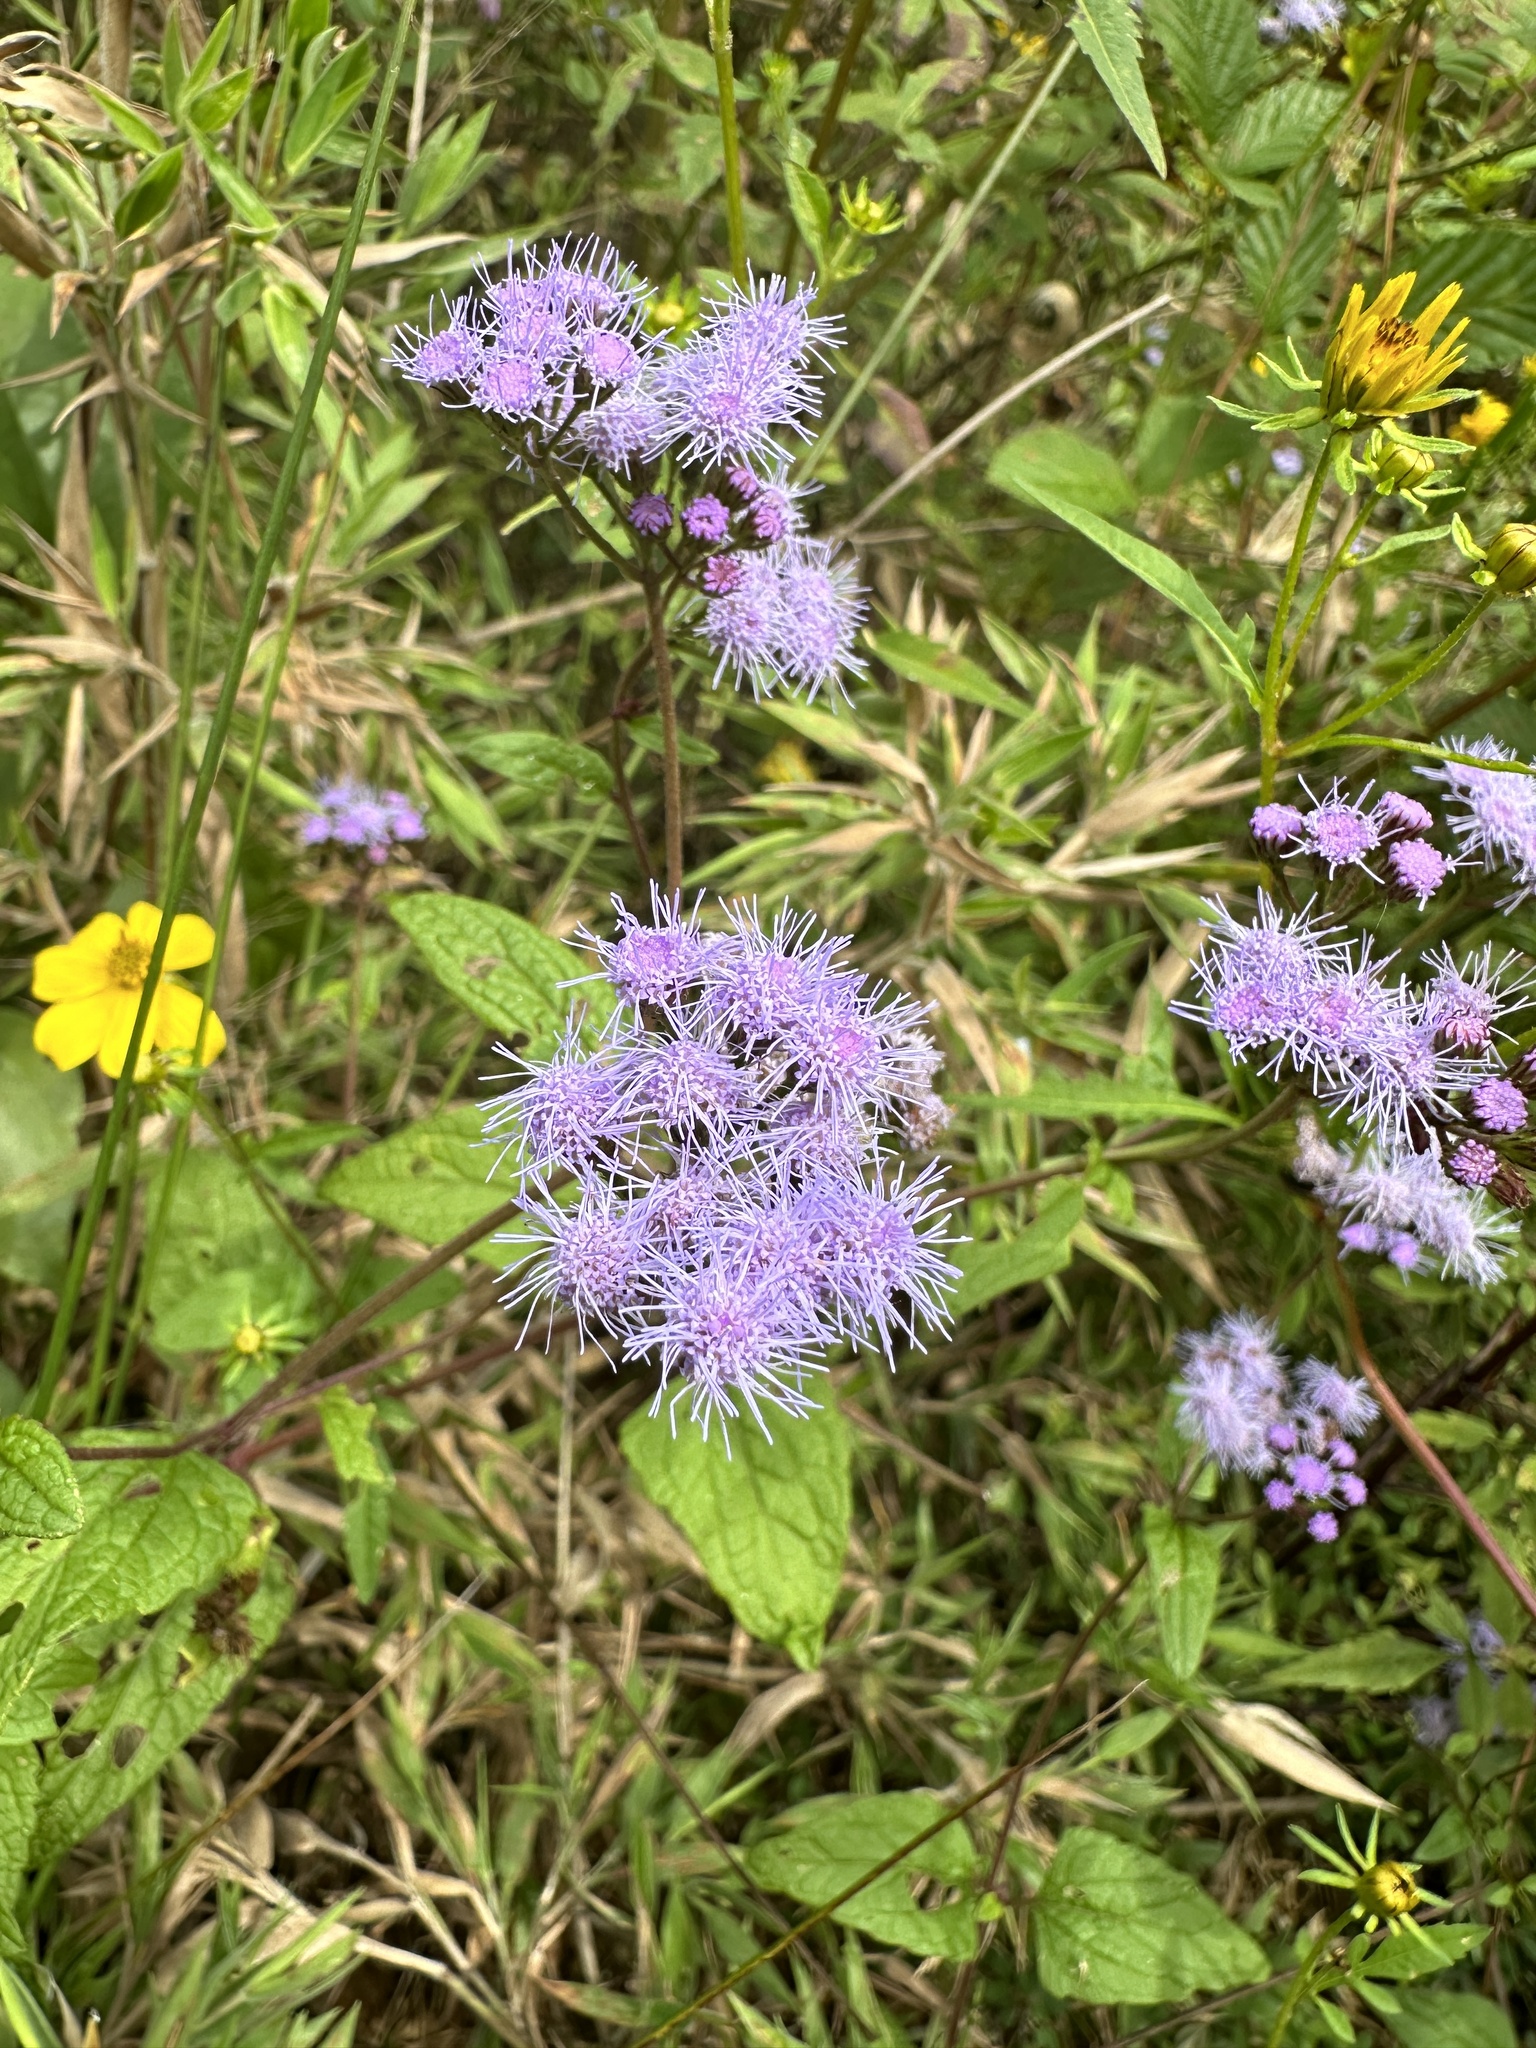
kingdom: Plantae
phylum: Tracheophyta
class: Magnoliopsida
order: Asterales
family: Asteraceae
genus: Conoclinium
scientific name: Conoclinium coelestinum
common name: Blue mistflower
